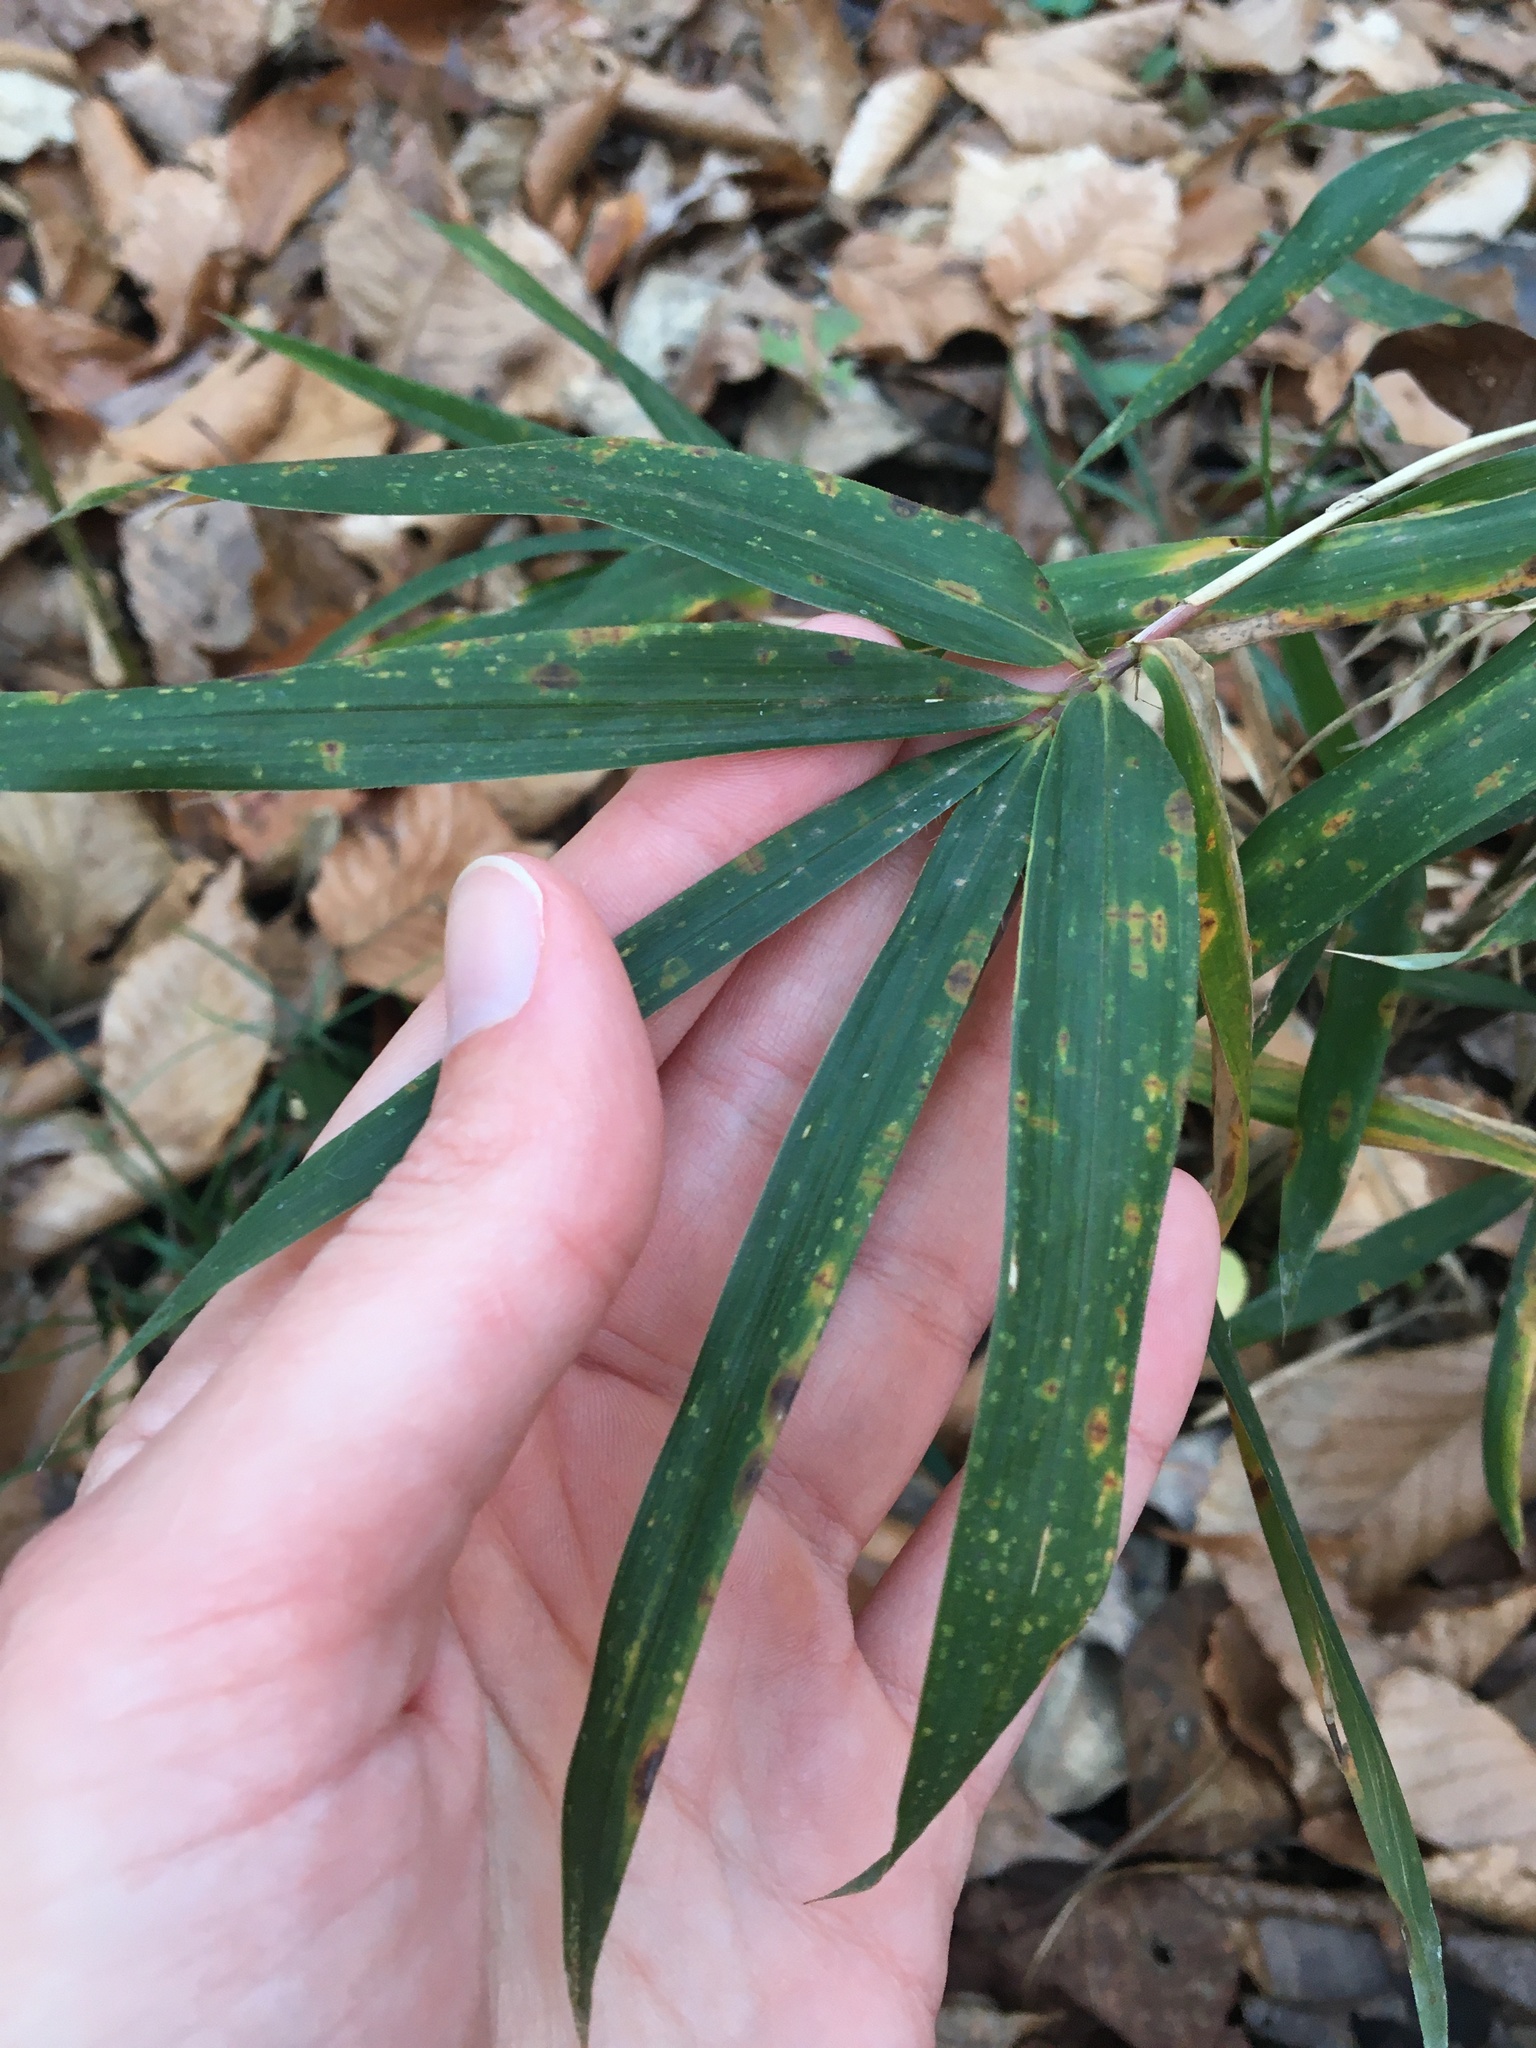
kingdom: Plantae
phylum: Tracheophyta
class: Liliopsida
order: Poales
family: Poaceae
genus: Arundinaria
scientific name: Arundinaria gigantea
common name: Giant cane
